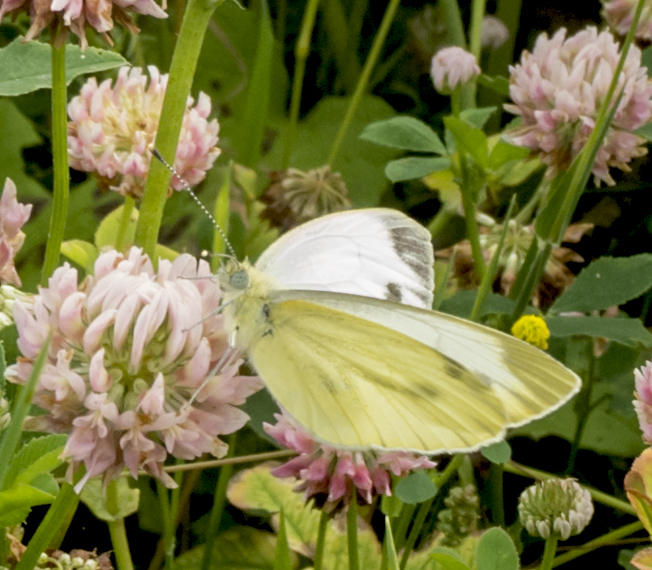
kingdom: Animalia
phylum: Arthropoda
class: Insecta
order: Lepidoptera
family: Pieridae
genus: Pieris
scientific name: Pieris napi
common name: Green-veined white
